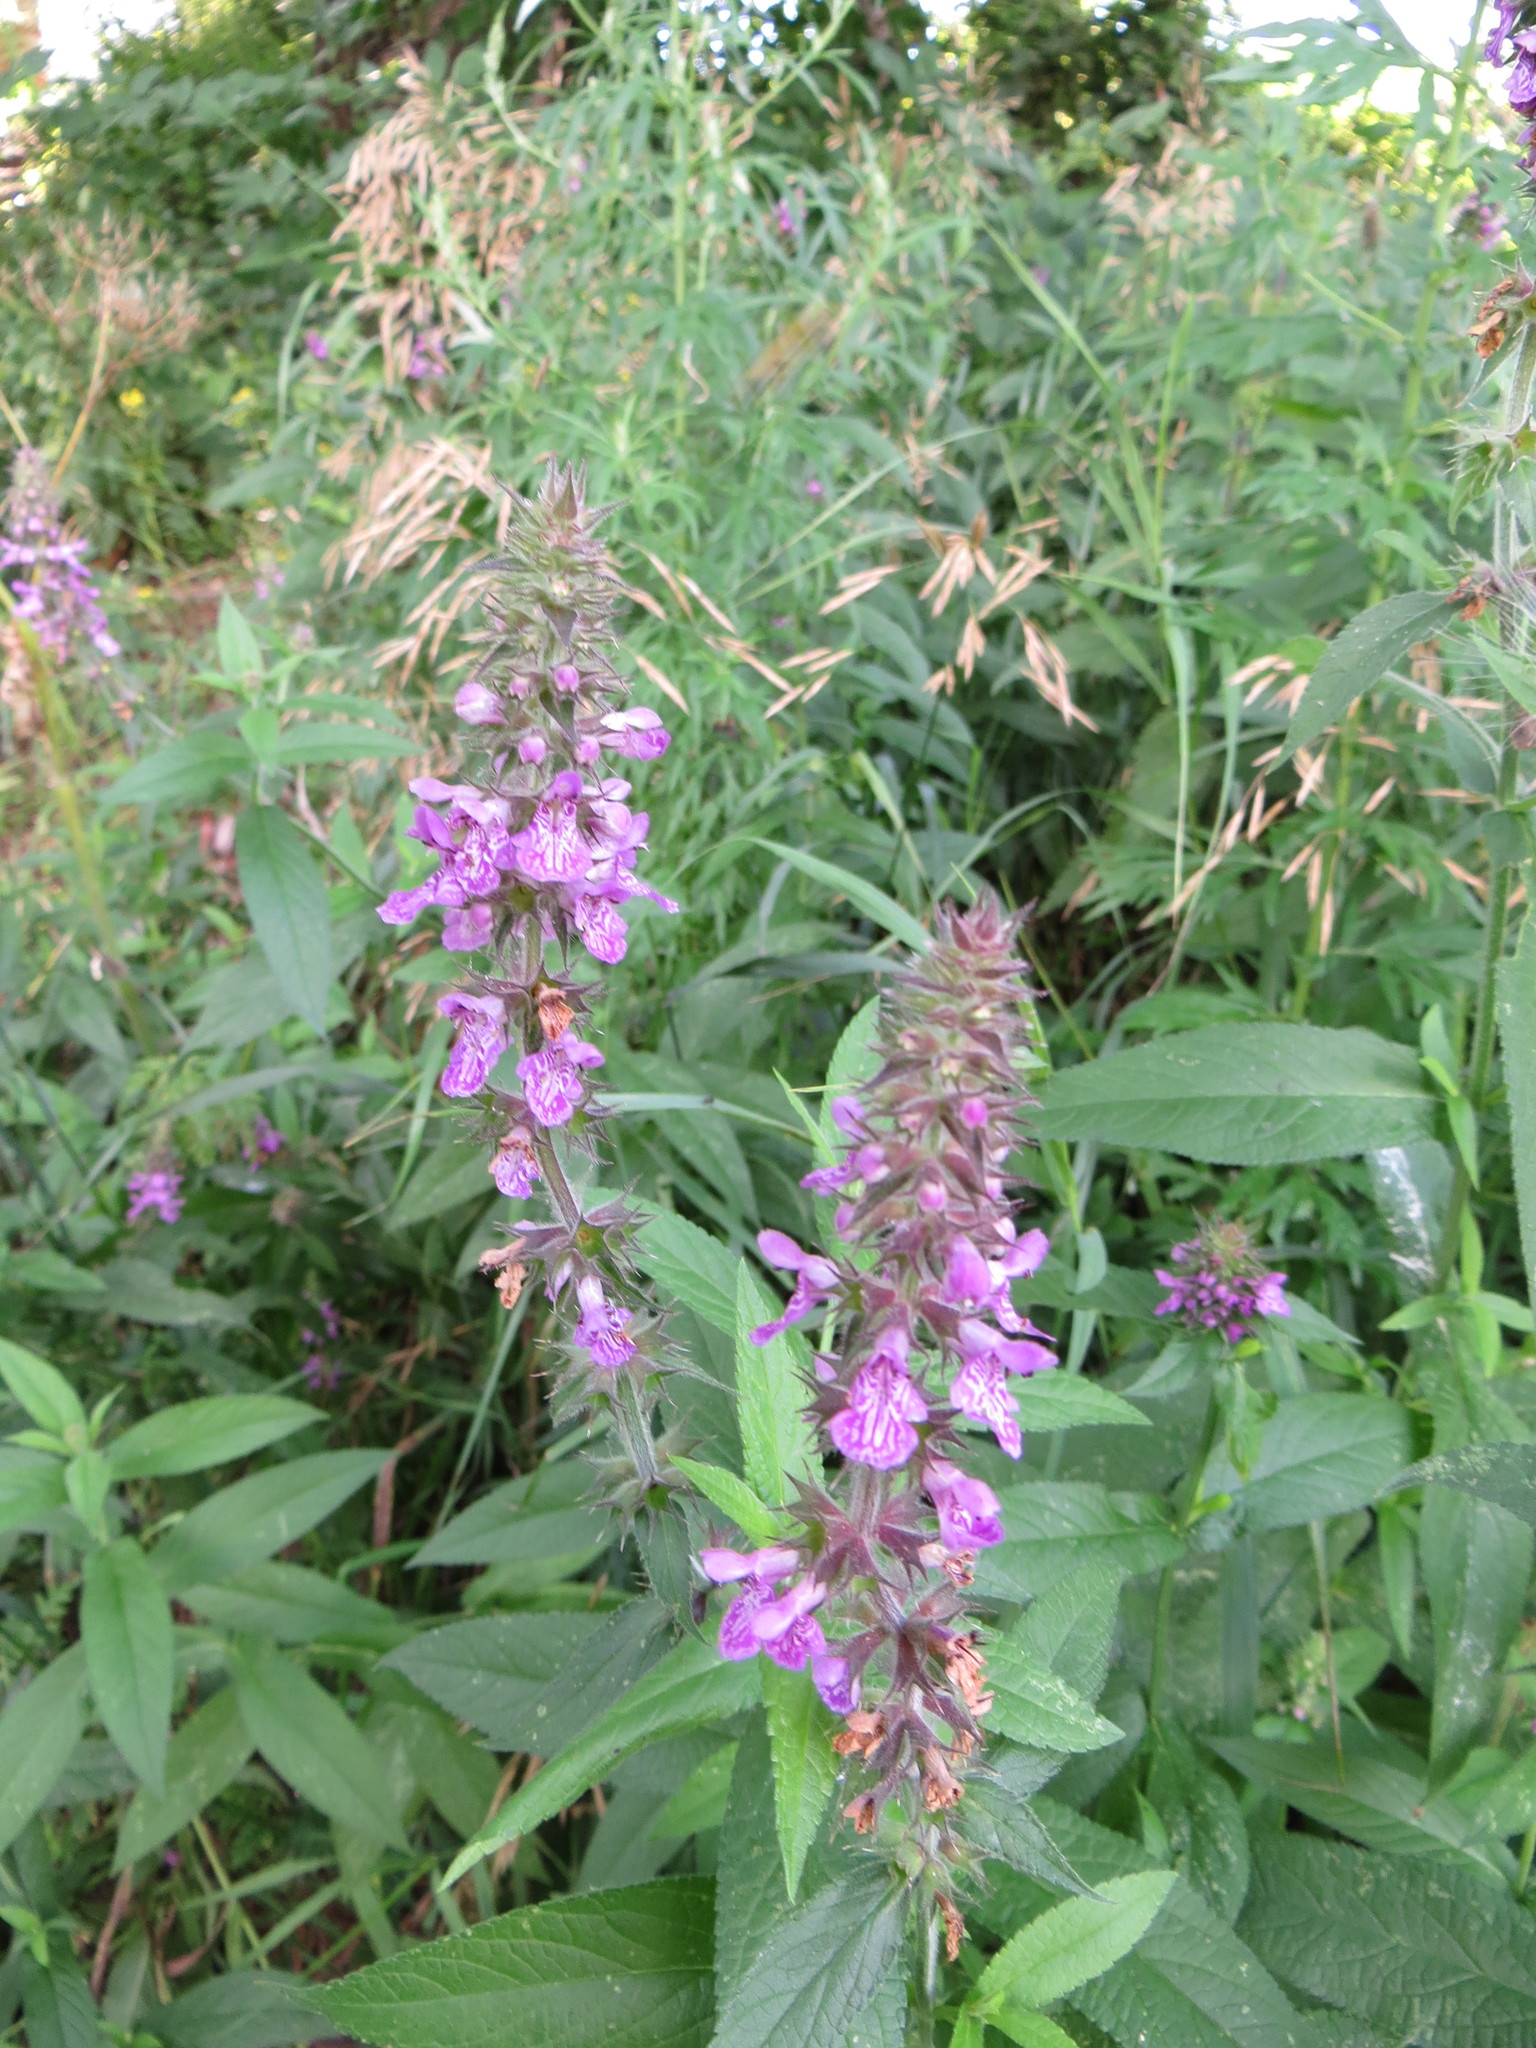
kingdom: Plantae
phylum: Tracheophyta
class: Magnoliopsida
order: Lamiales
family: Lamiaceae
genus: Stachys
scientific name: Stachys palustris
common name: Marsh woundwort
